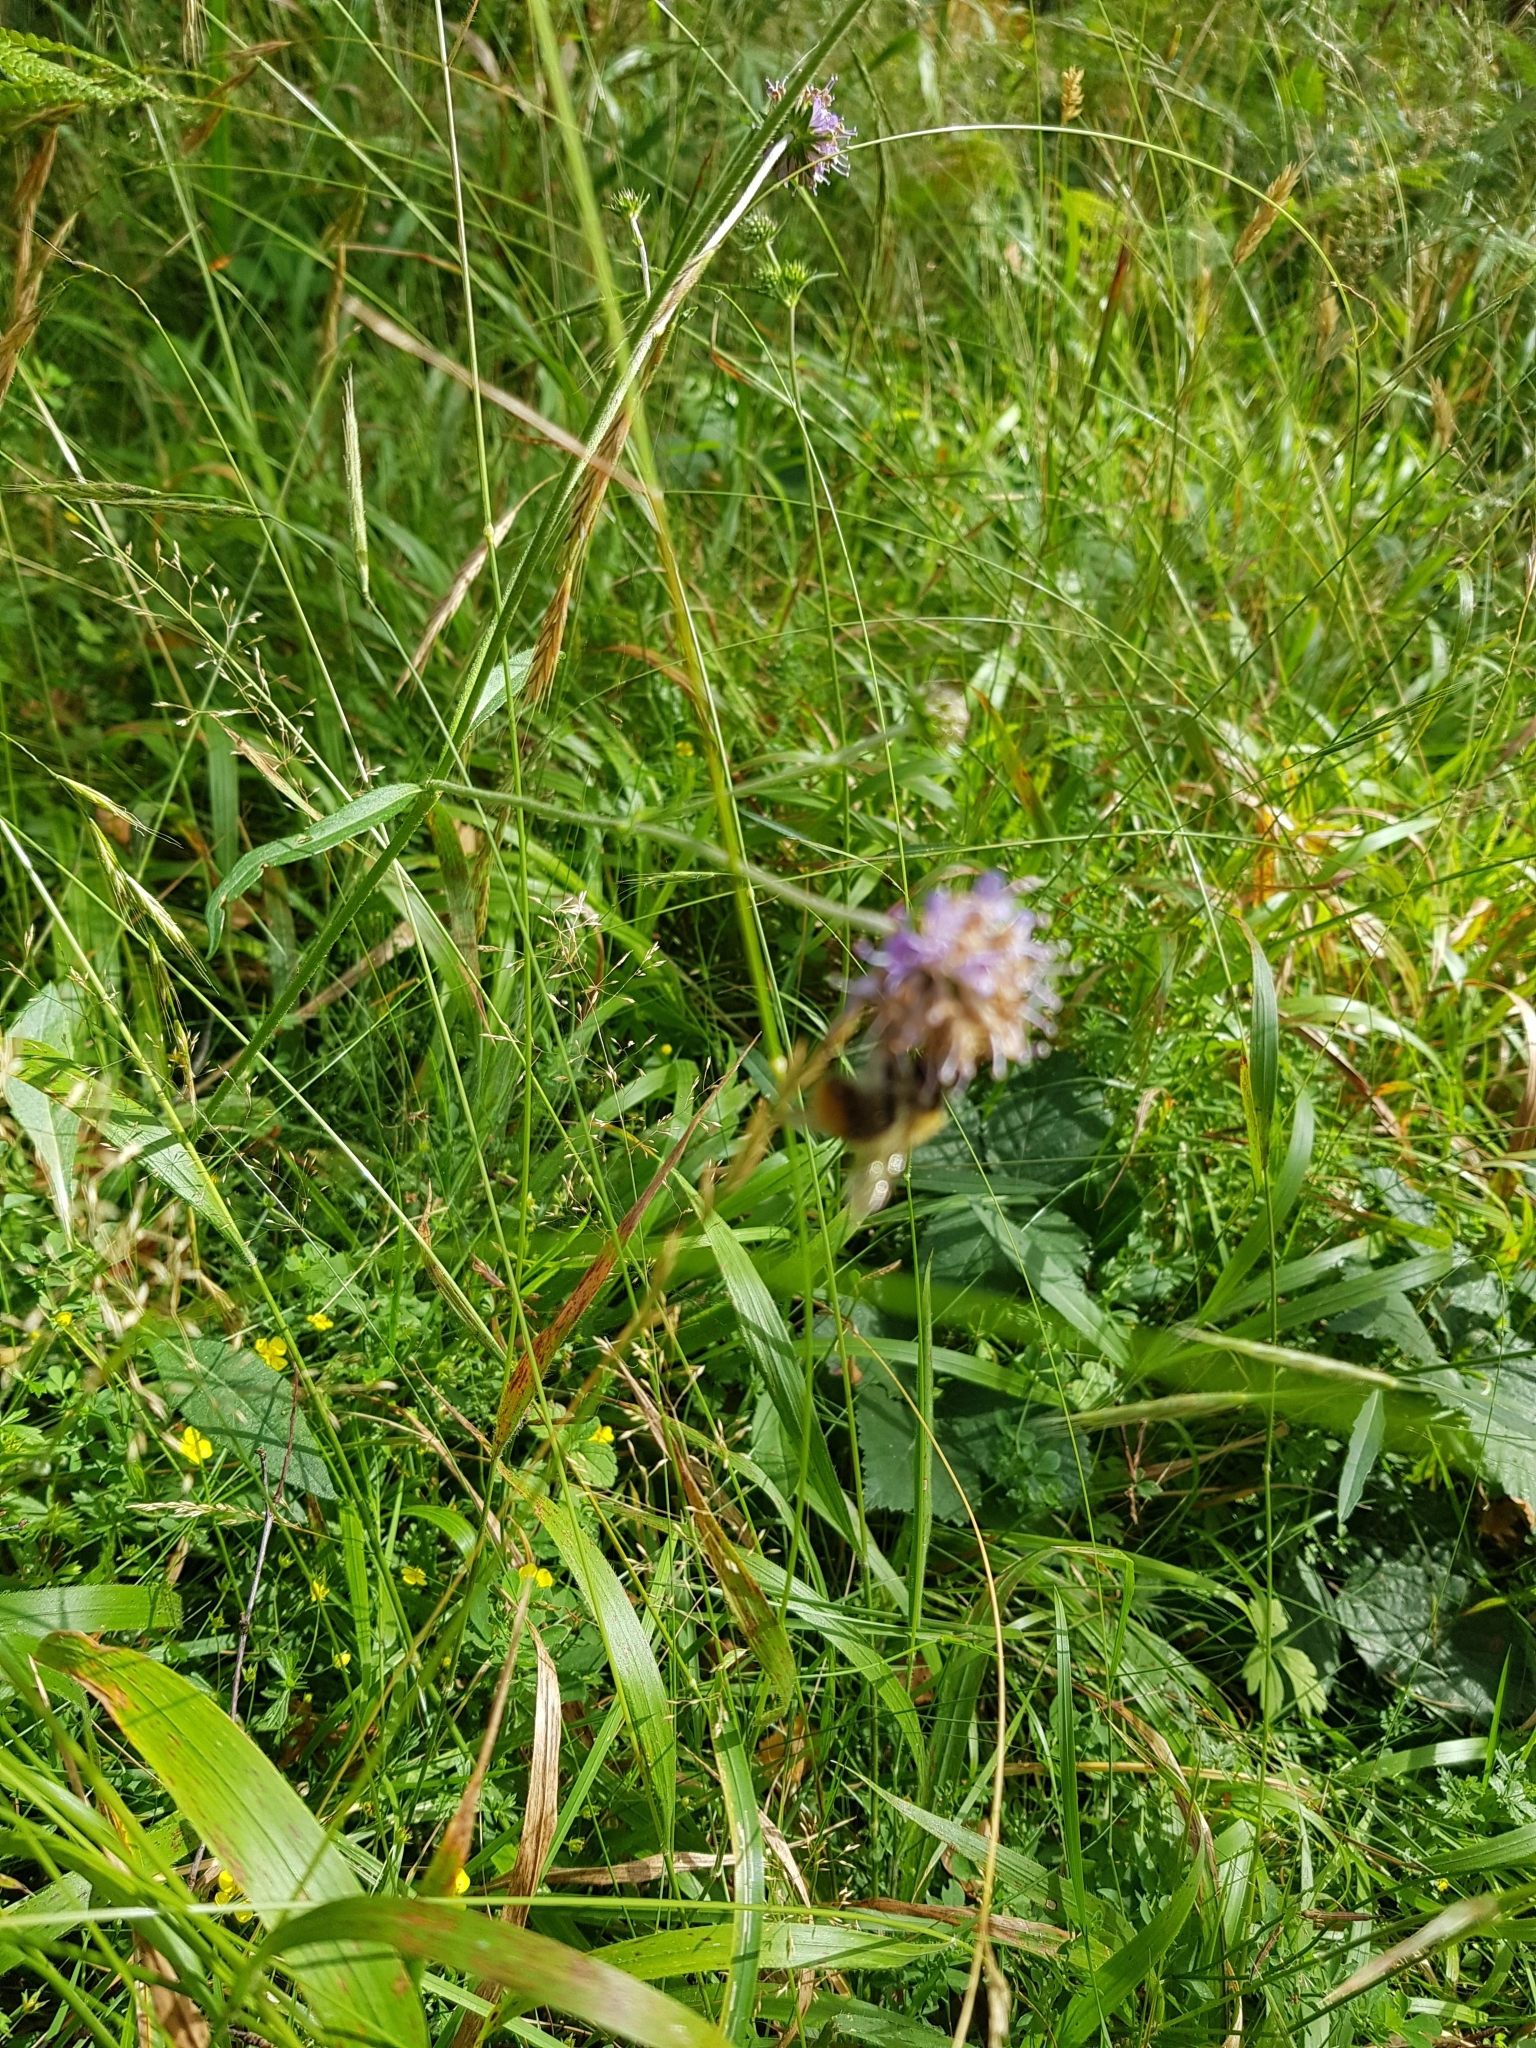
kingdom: Animalia
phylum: Arthropoda
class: Insecta
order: Hymenoptera
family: Apidae
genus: Bombus
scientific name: Bombus pascuorum
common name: Common carder bee
